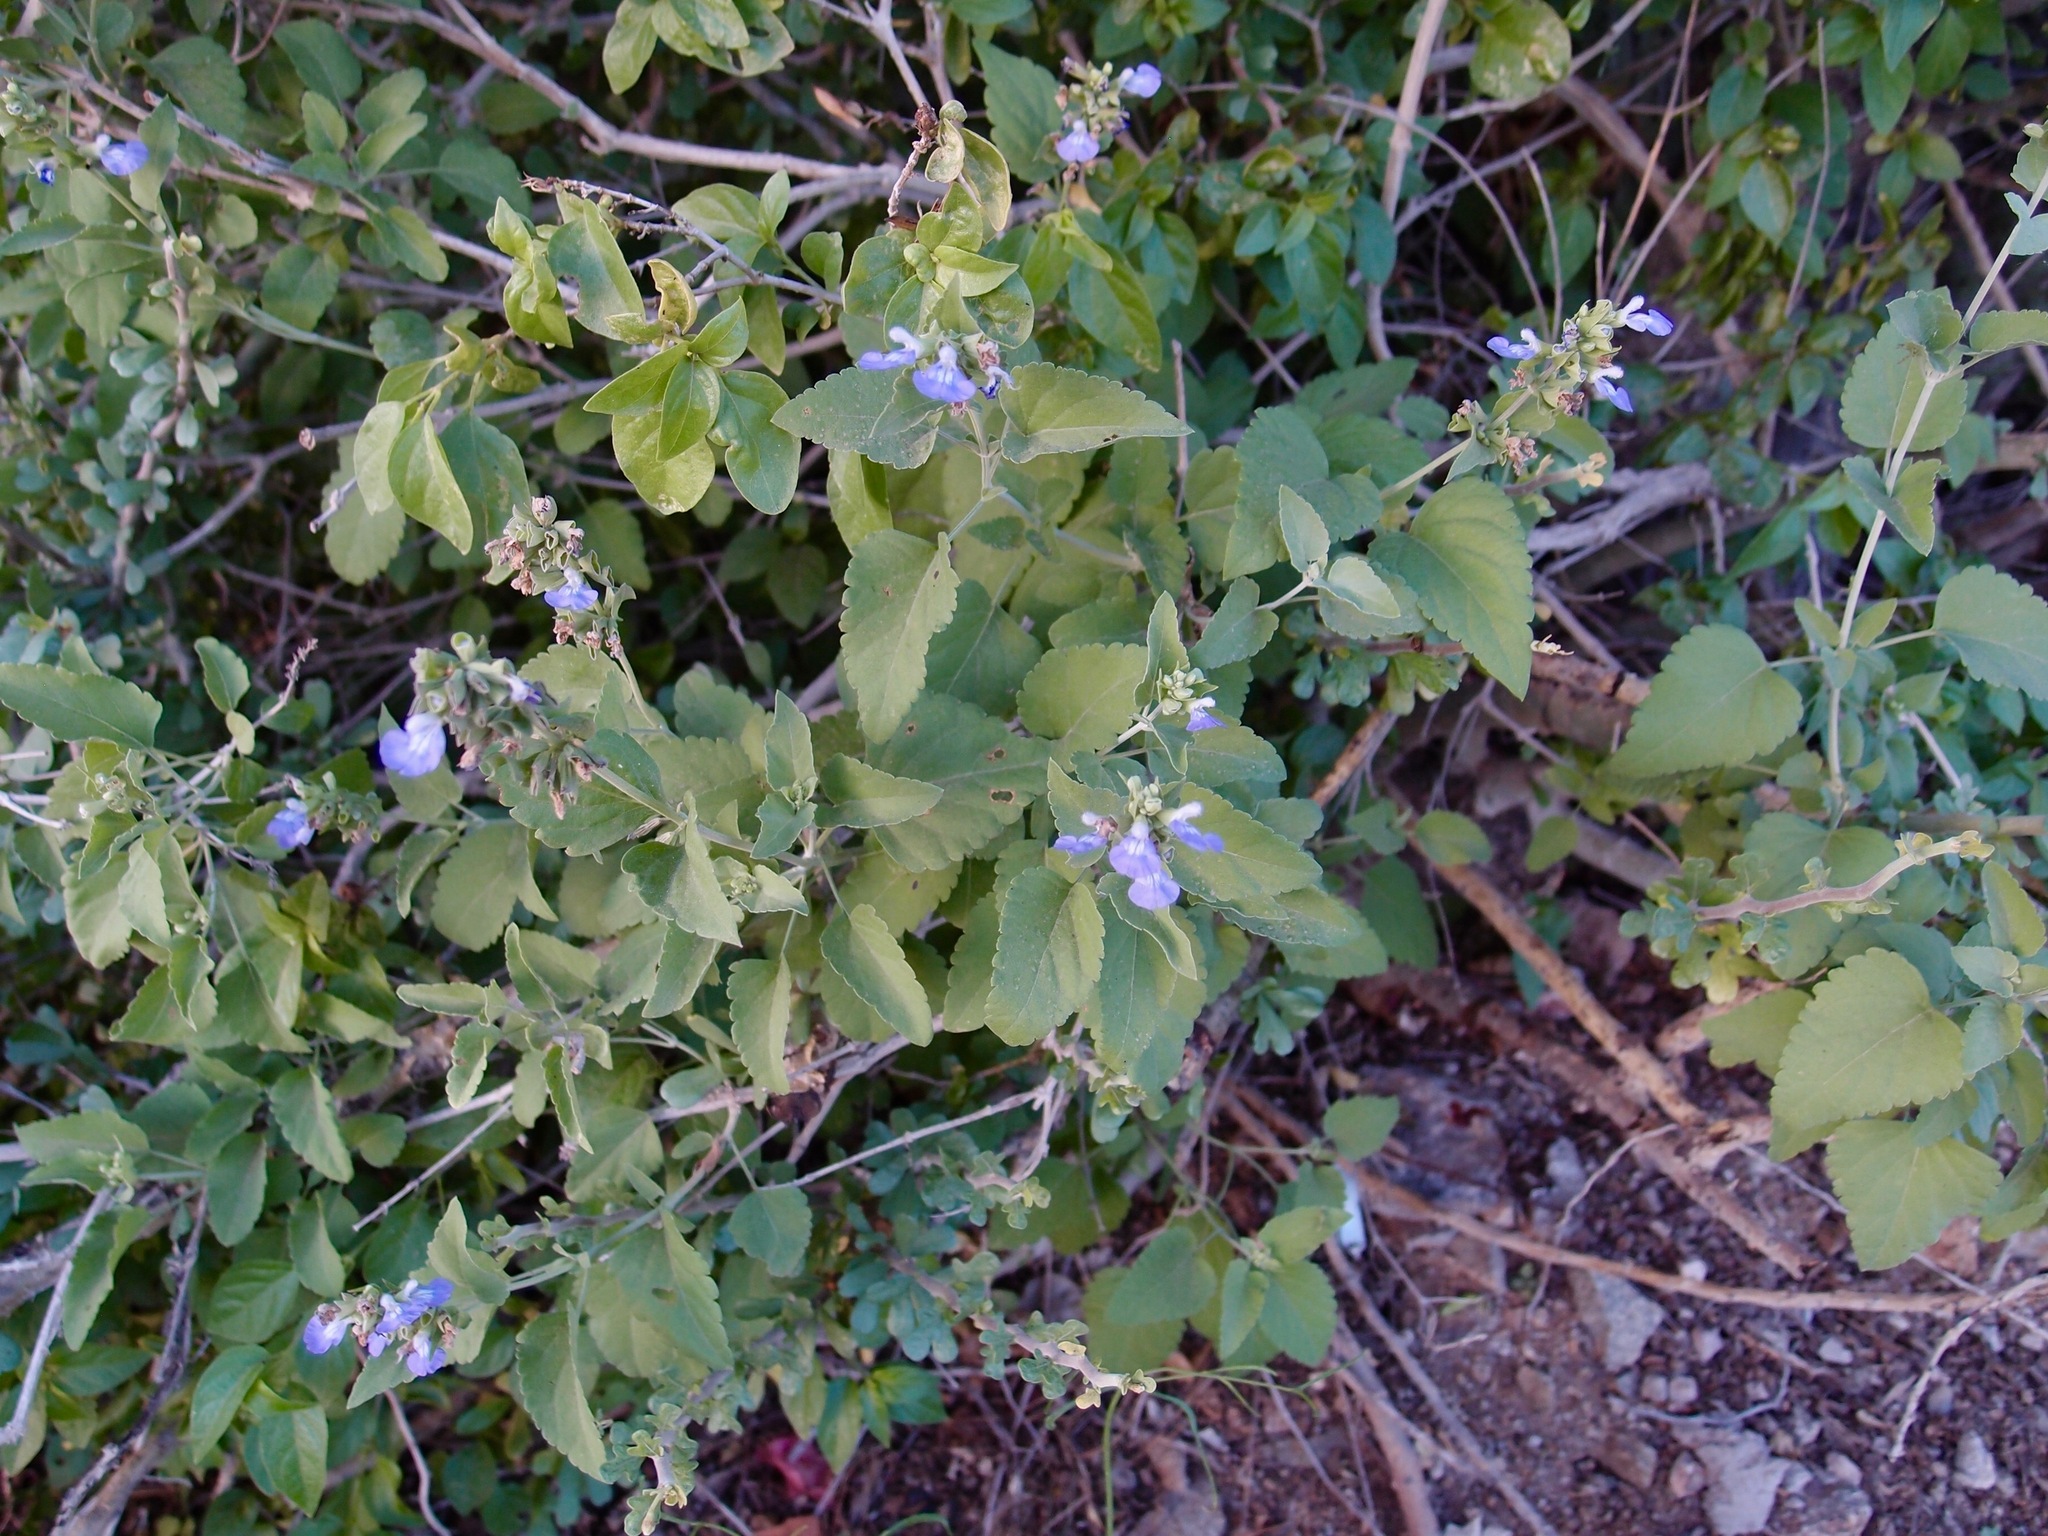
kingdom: Plantae
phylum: Tracheophyta
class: Magnoliopsida
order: Lamiales
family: Lamiaceae
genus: Salvia
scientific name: Salvia similis
